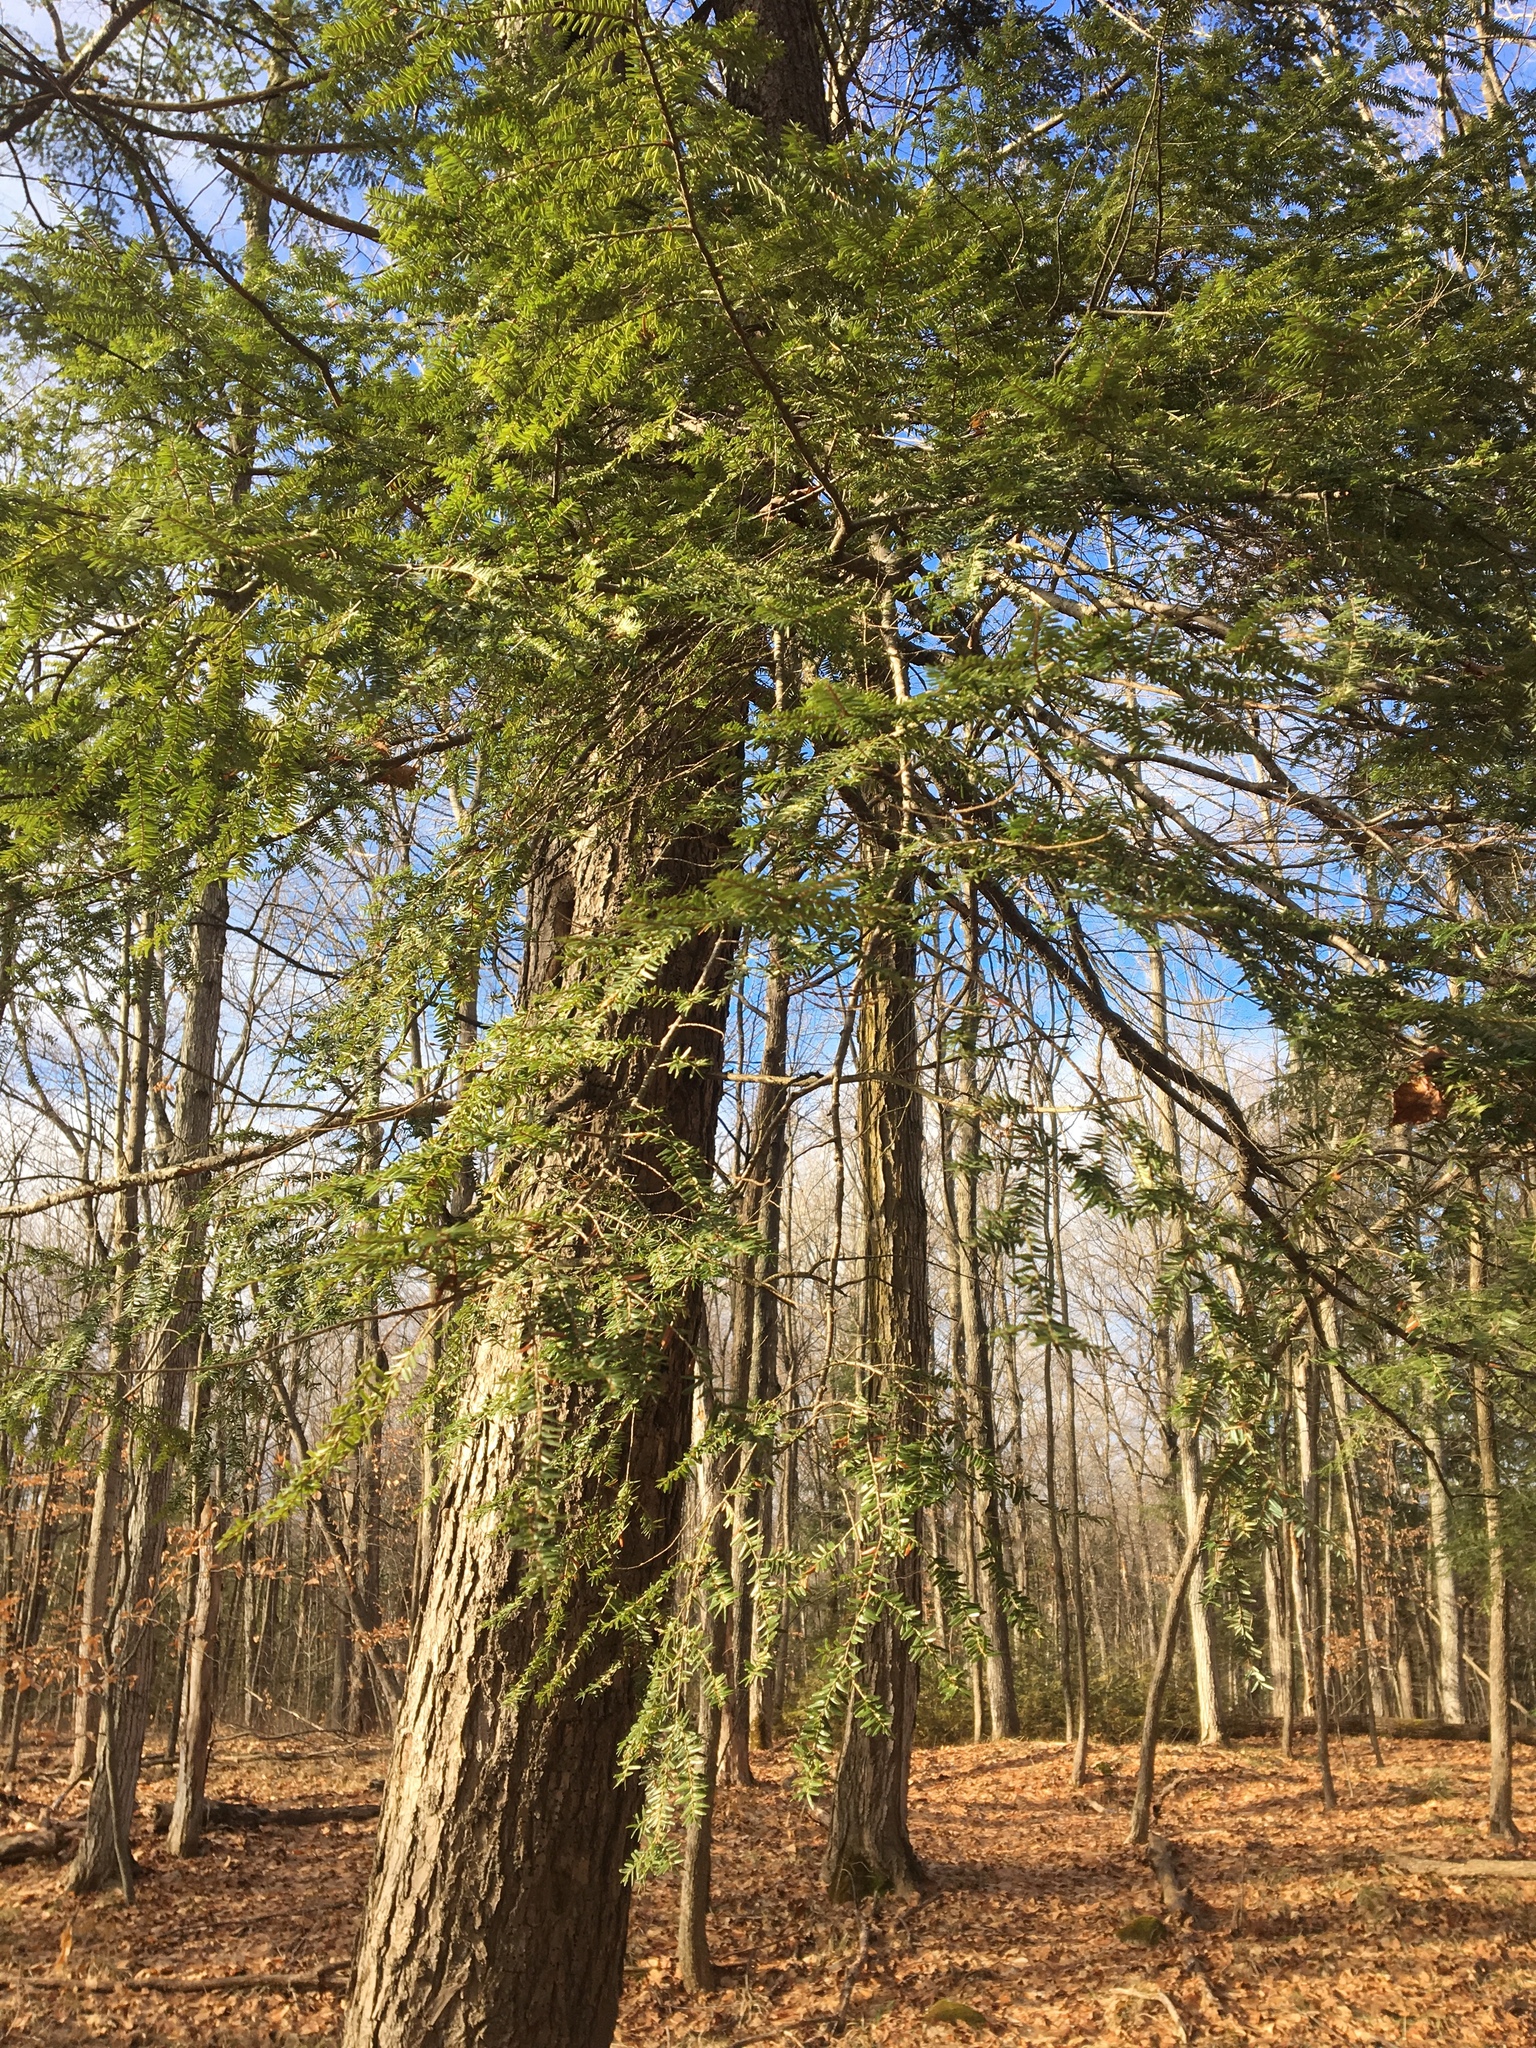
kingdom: Plantae
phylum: Tracheophyta
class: Pinopsida
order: Pinales
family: Pinaceae
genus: Tsuga
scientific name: Tsuga canadensis
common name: Eastern hemlock
